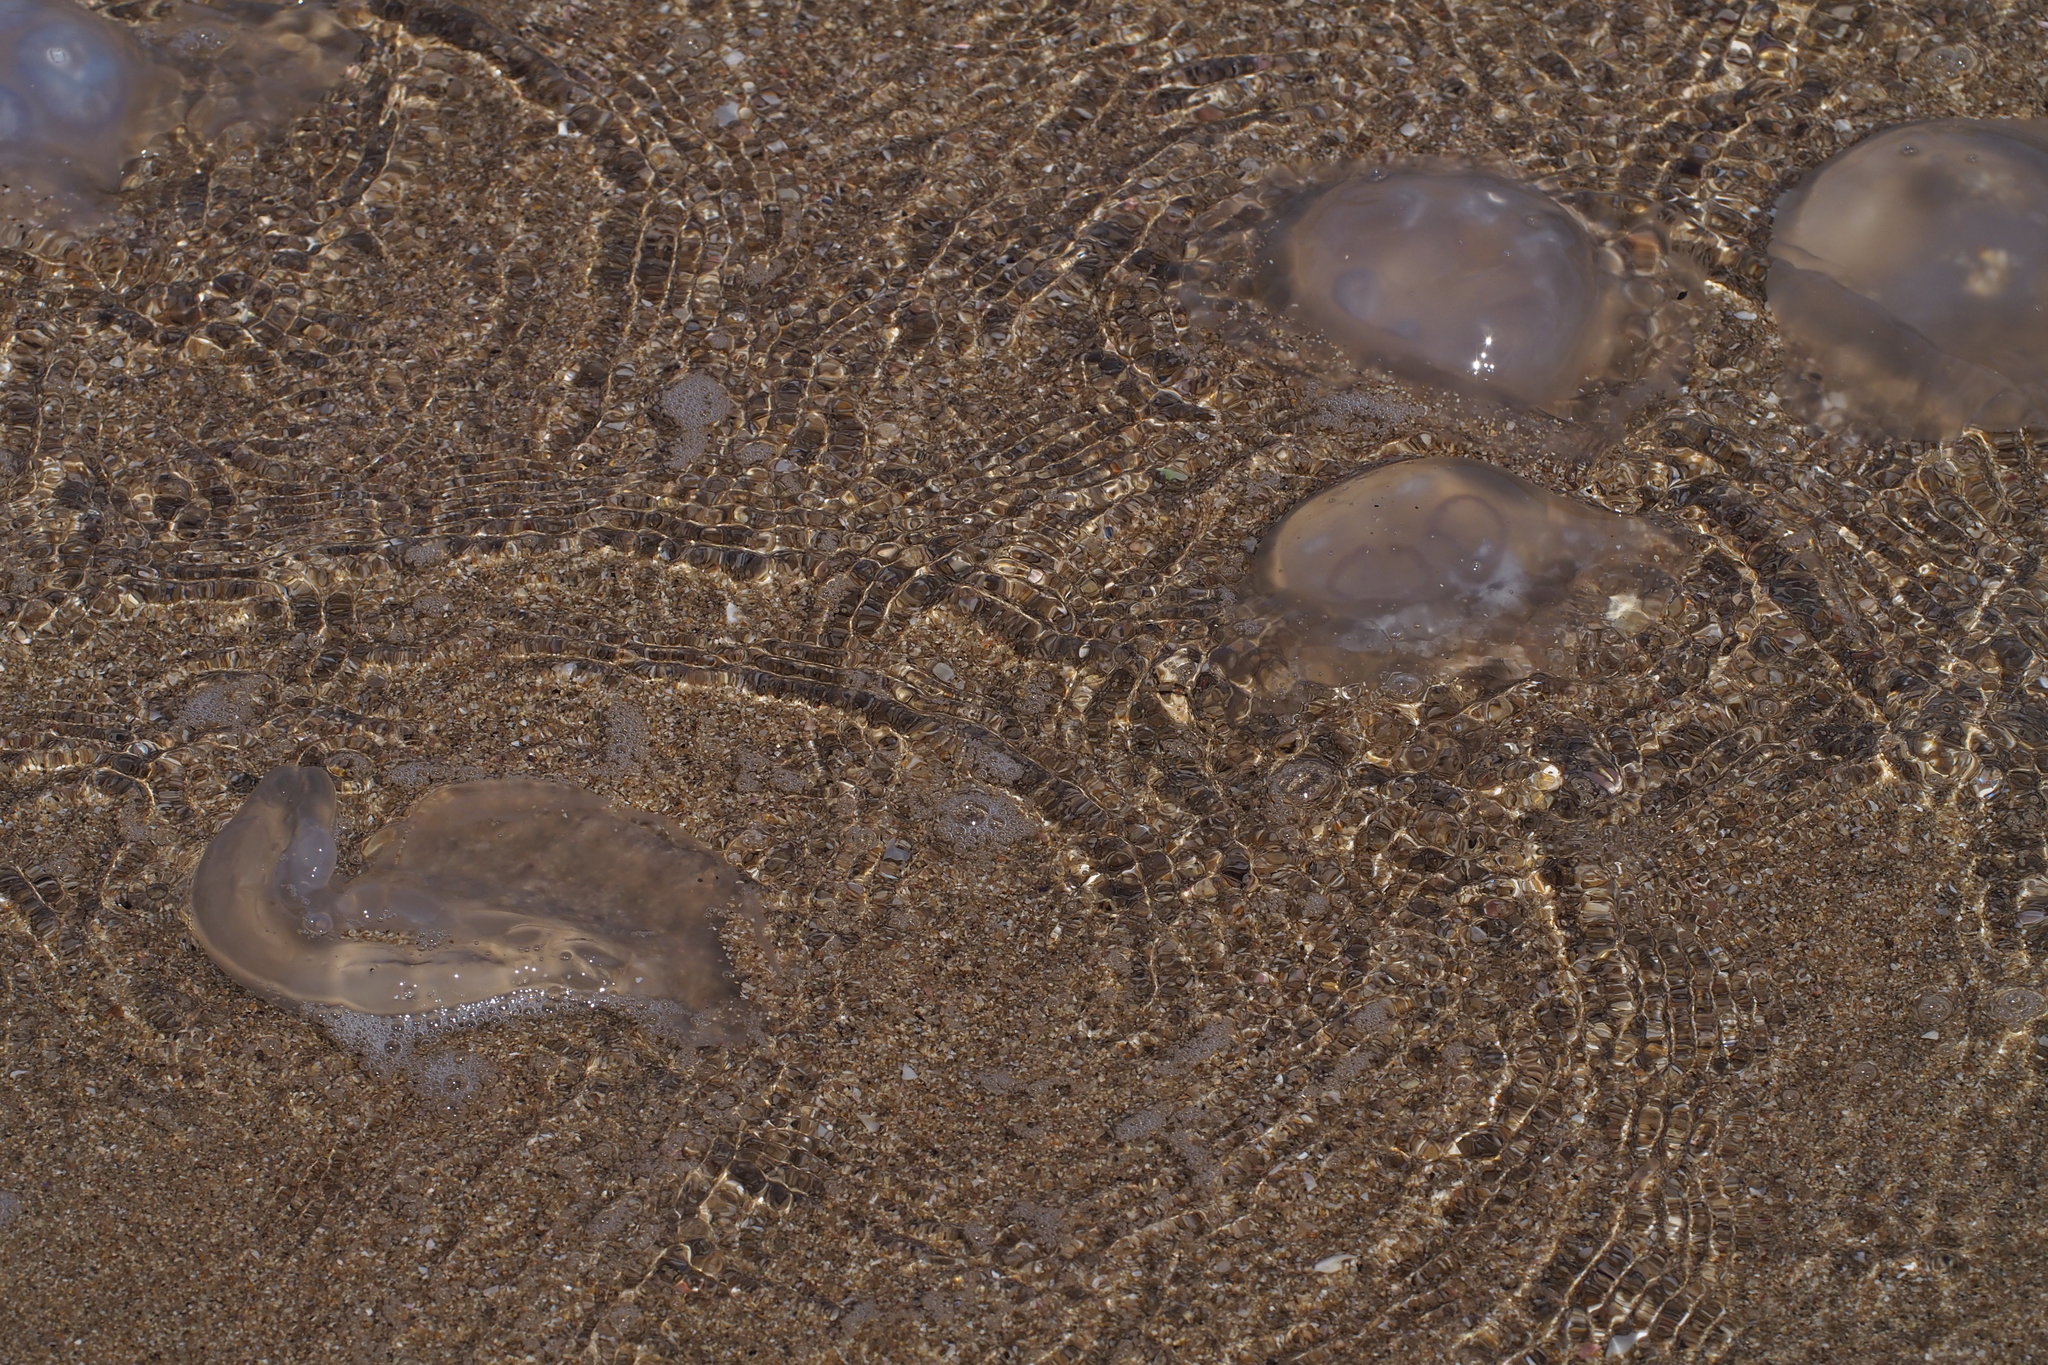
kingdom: Animalia
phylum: Cnidaria
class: Scyphozoa
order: Semaeostomeae
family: Ulmaridae
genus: Aurelia
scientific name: Aurelia coerulea
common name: Moon jellyfish
